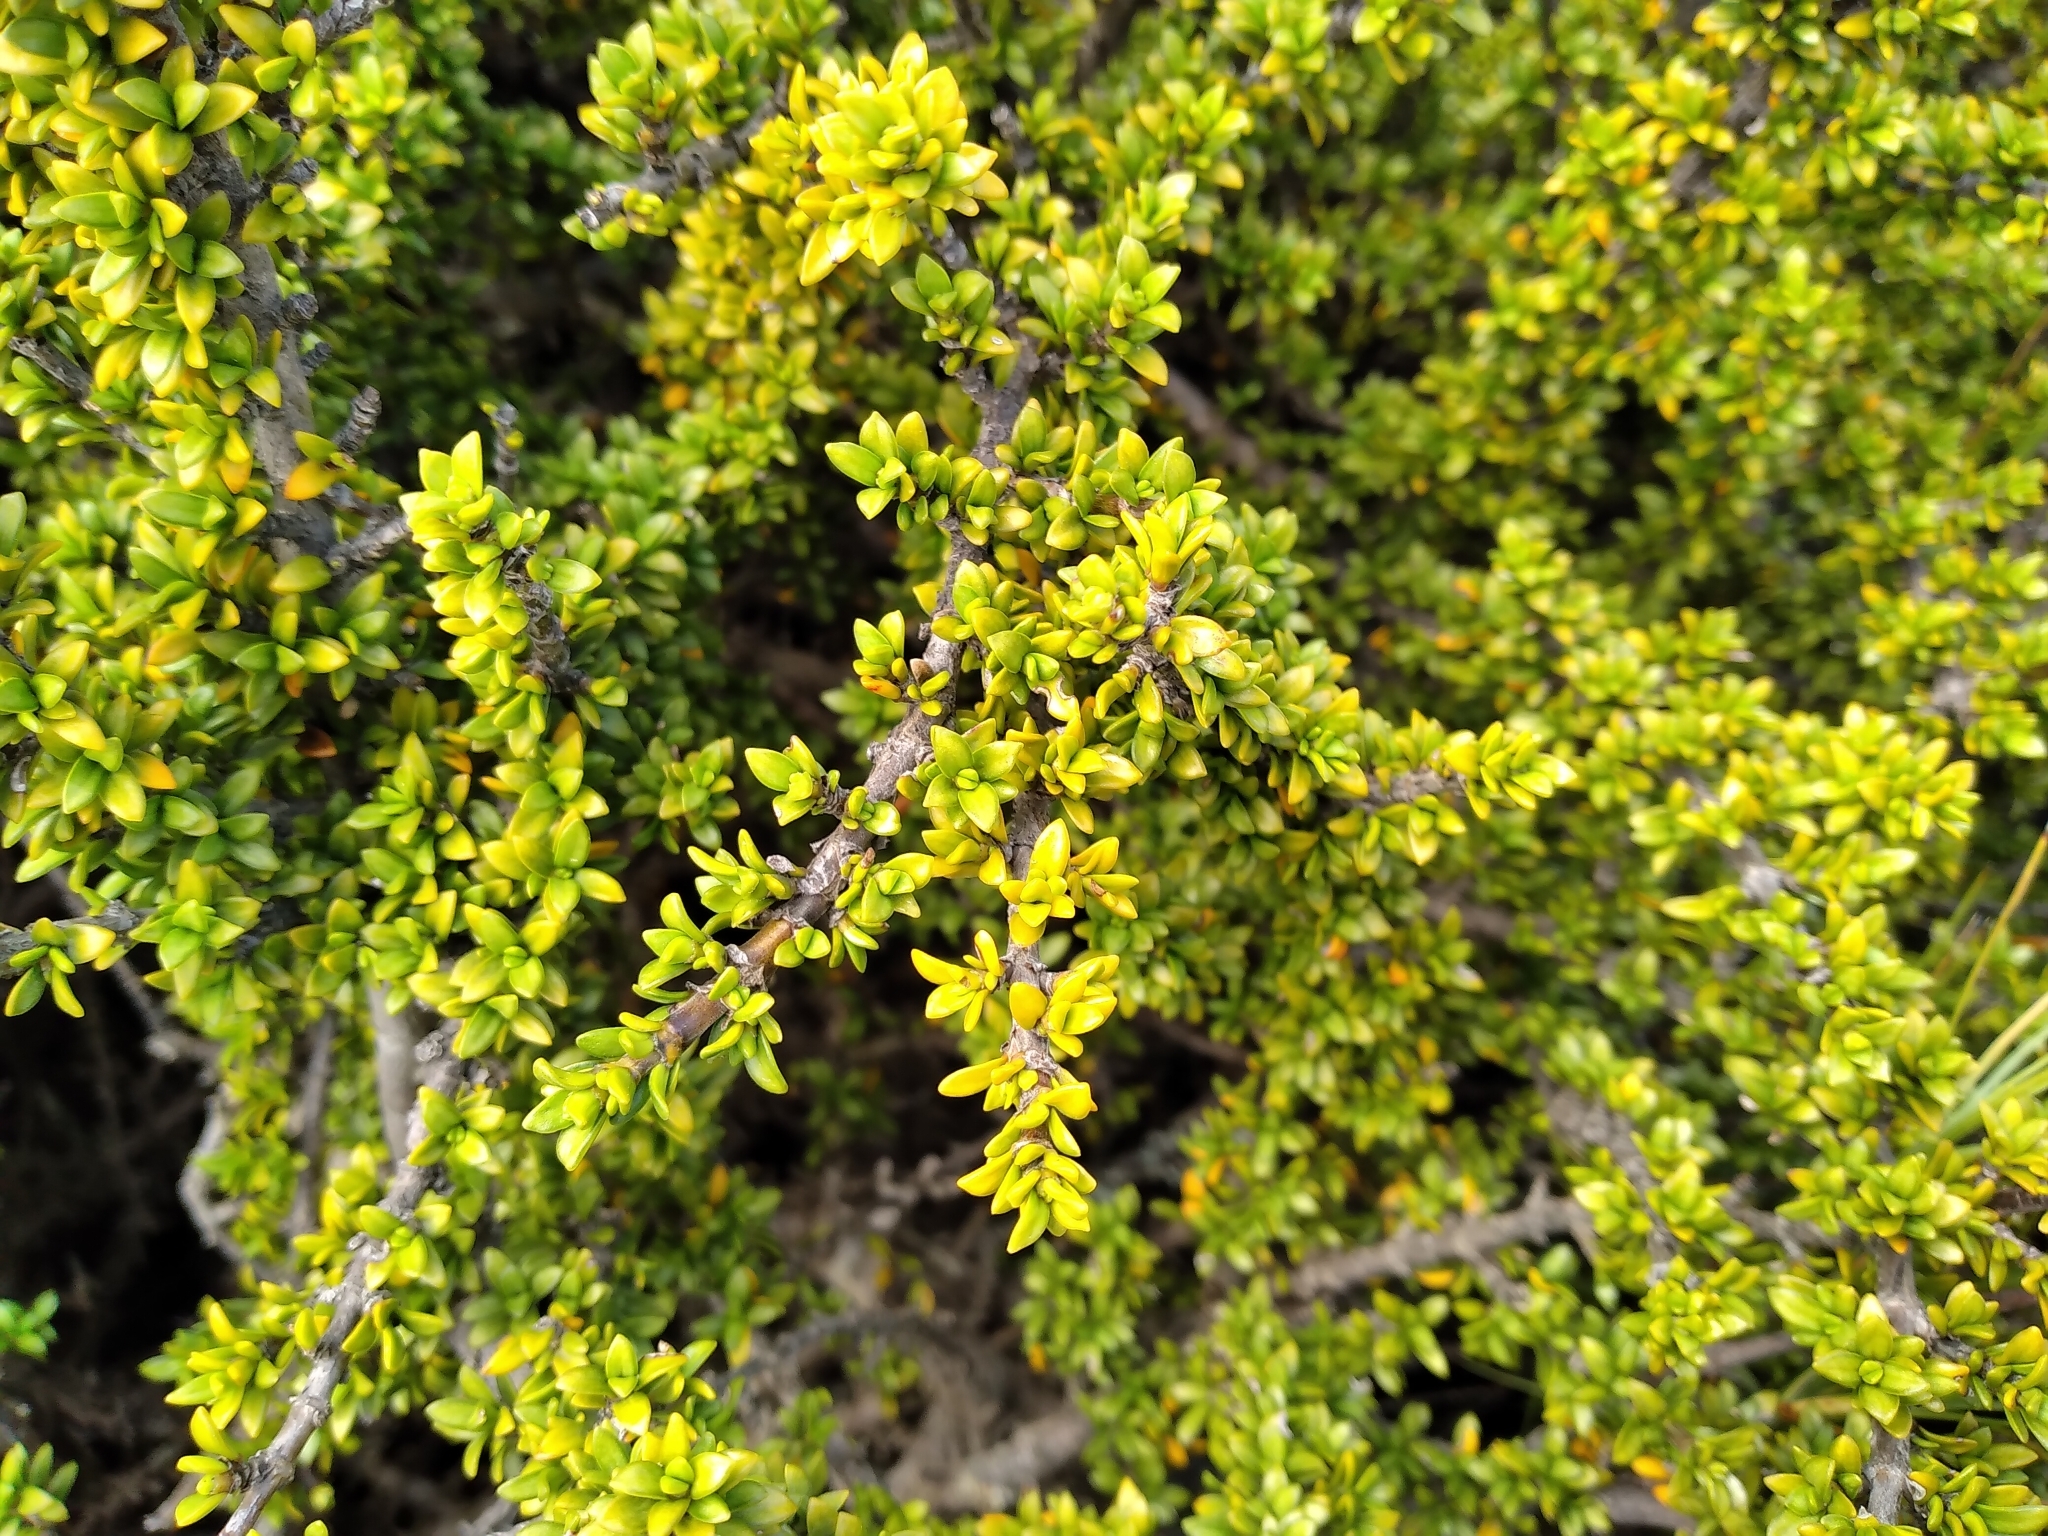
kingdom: Plantae
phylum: Tracheophyta
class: Magnoliopsida
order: Gentianales
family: Rubiaceae
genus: Coprosma
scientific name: Coprosma fowerakeri
